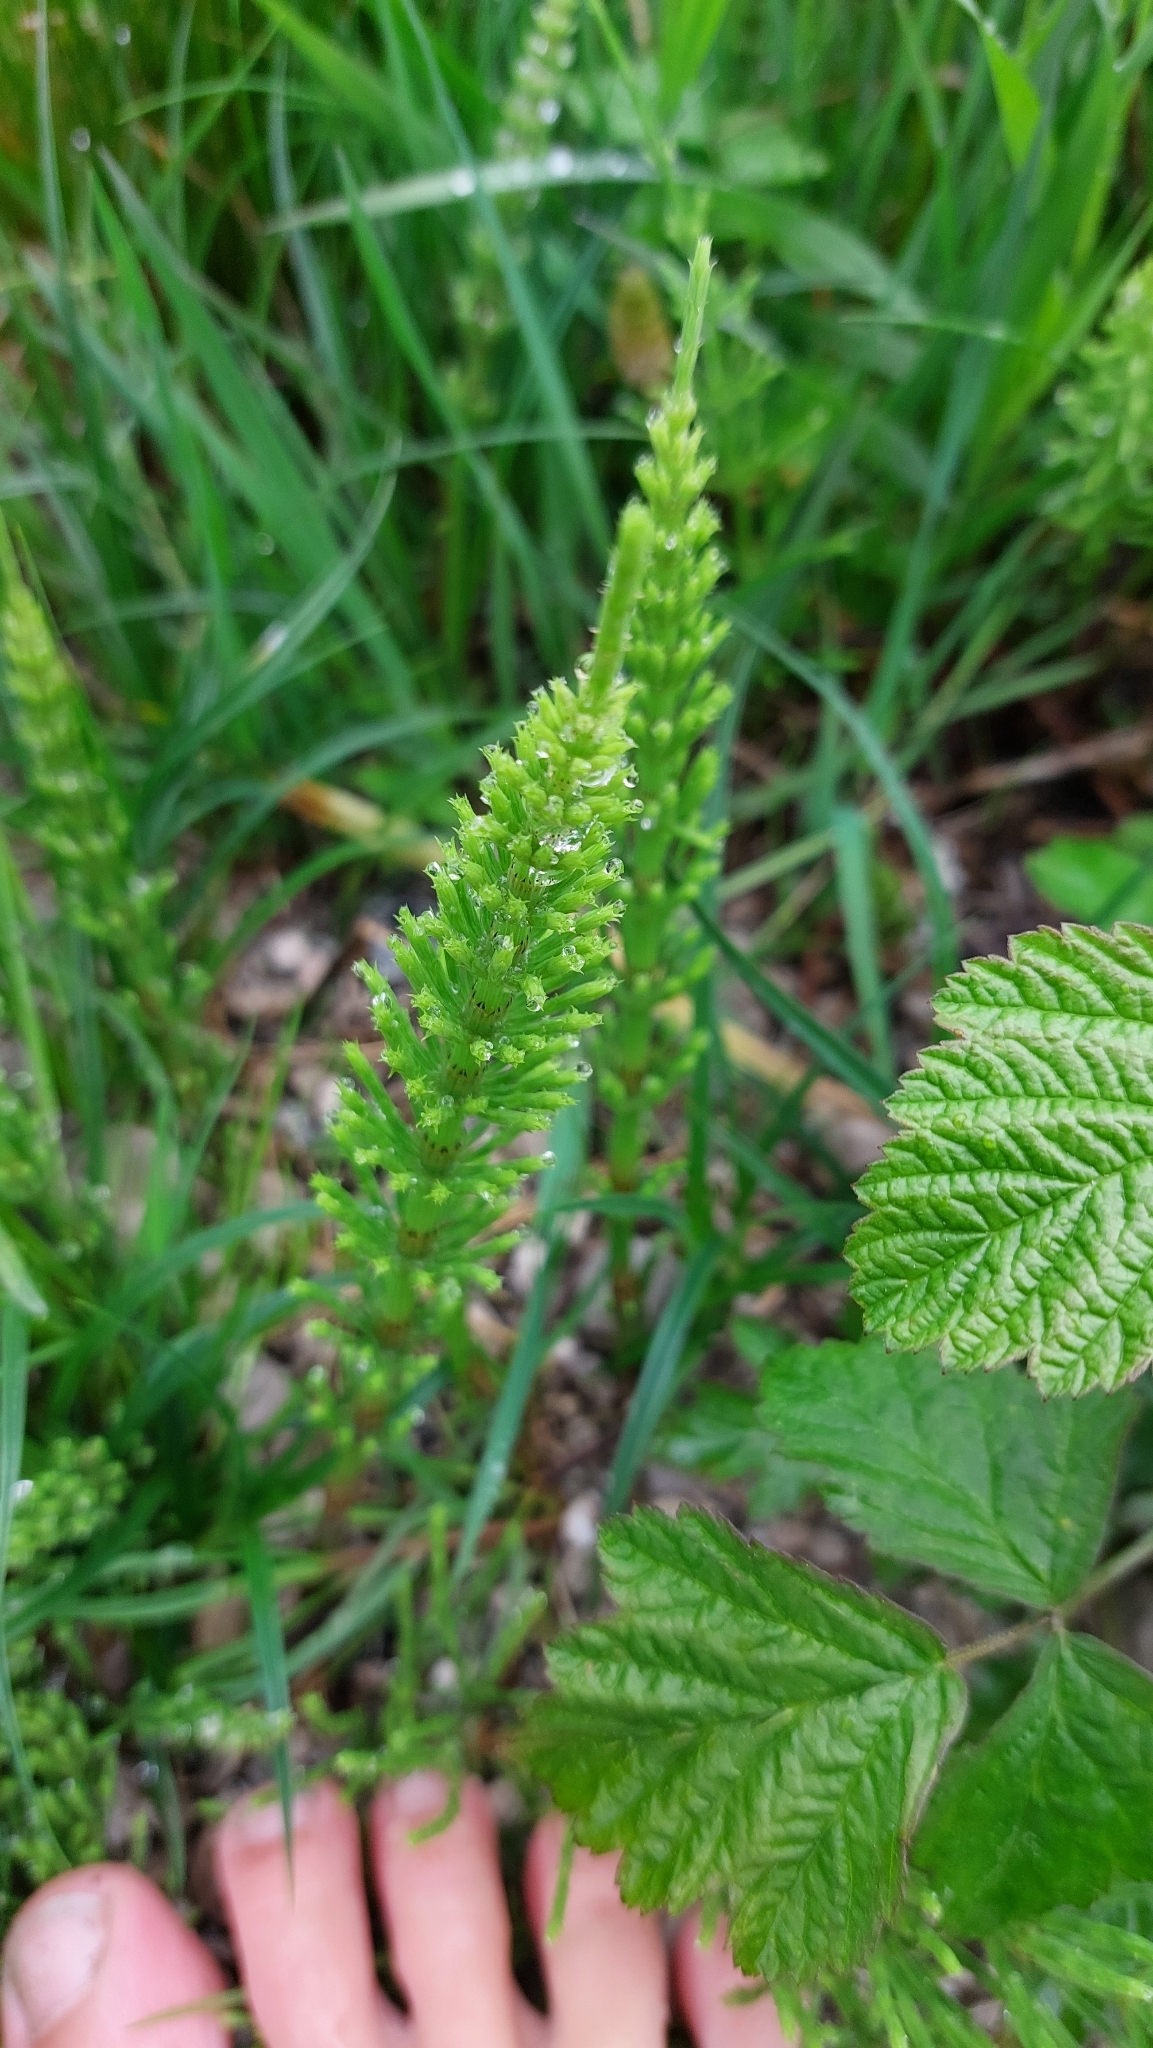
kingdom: Plantae
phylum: Tracheophyta
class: Polypodiopsida
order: Equisetales
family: Equisetaceae
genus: Equisetum
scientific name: Equisetum arvense
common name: Field horsetail
